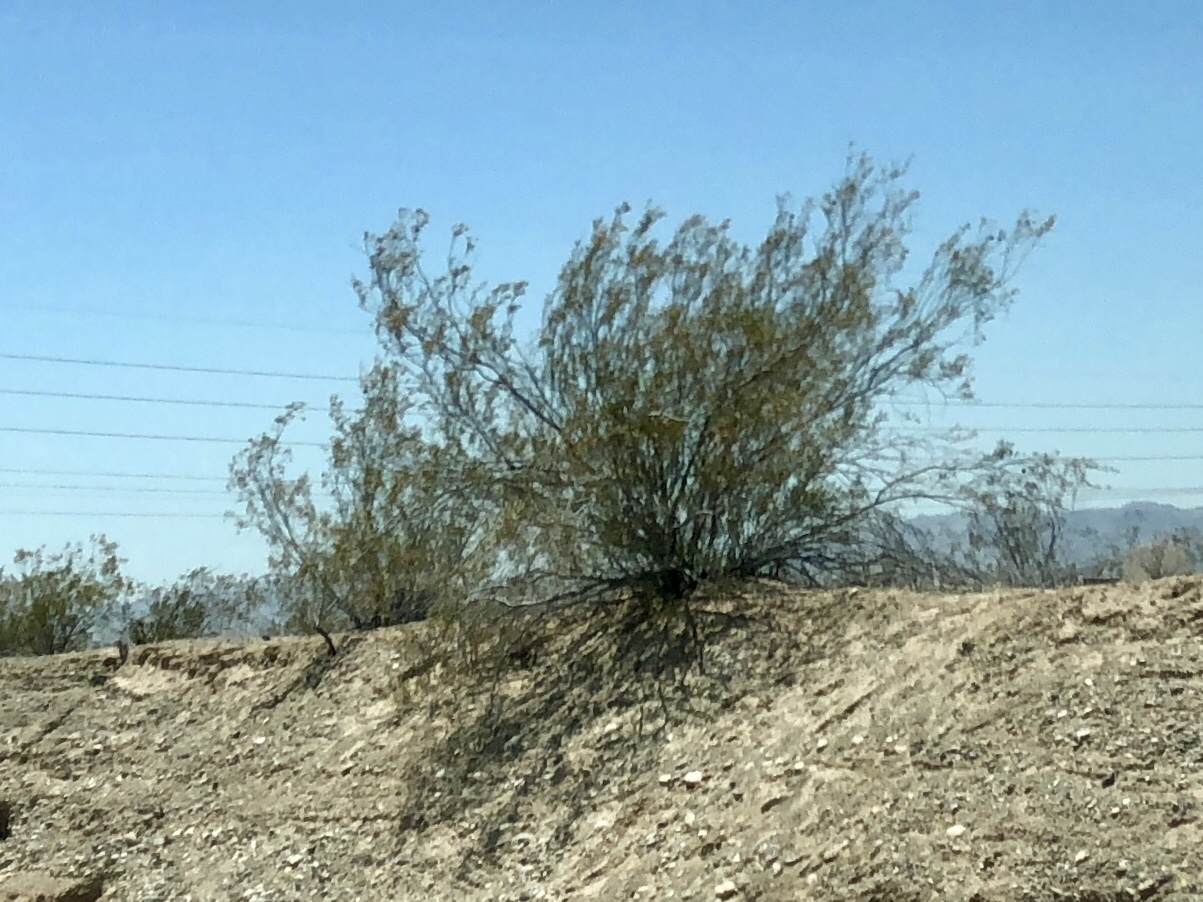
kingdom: Plantae
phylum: Tracheophyta
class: Magnoliopsida
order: Zygophyllales
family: Zygophyllaceae
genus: Larrea
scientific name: Larrea tridentata
